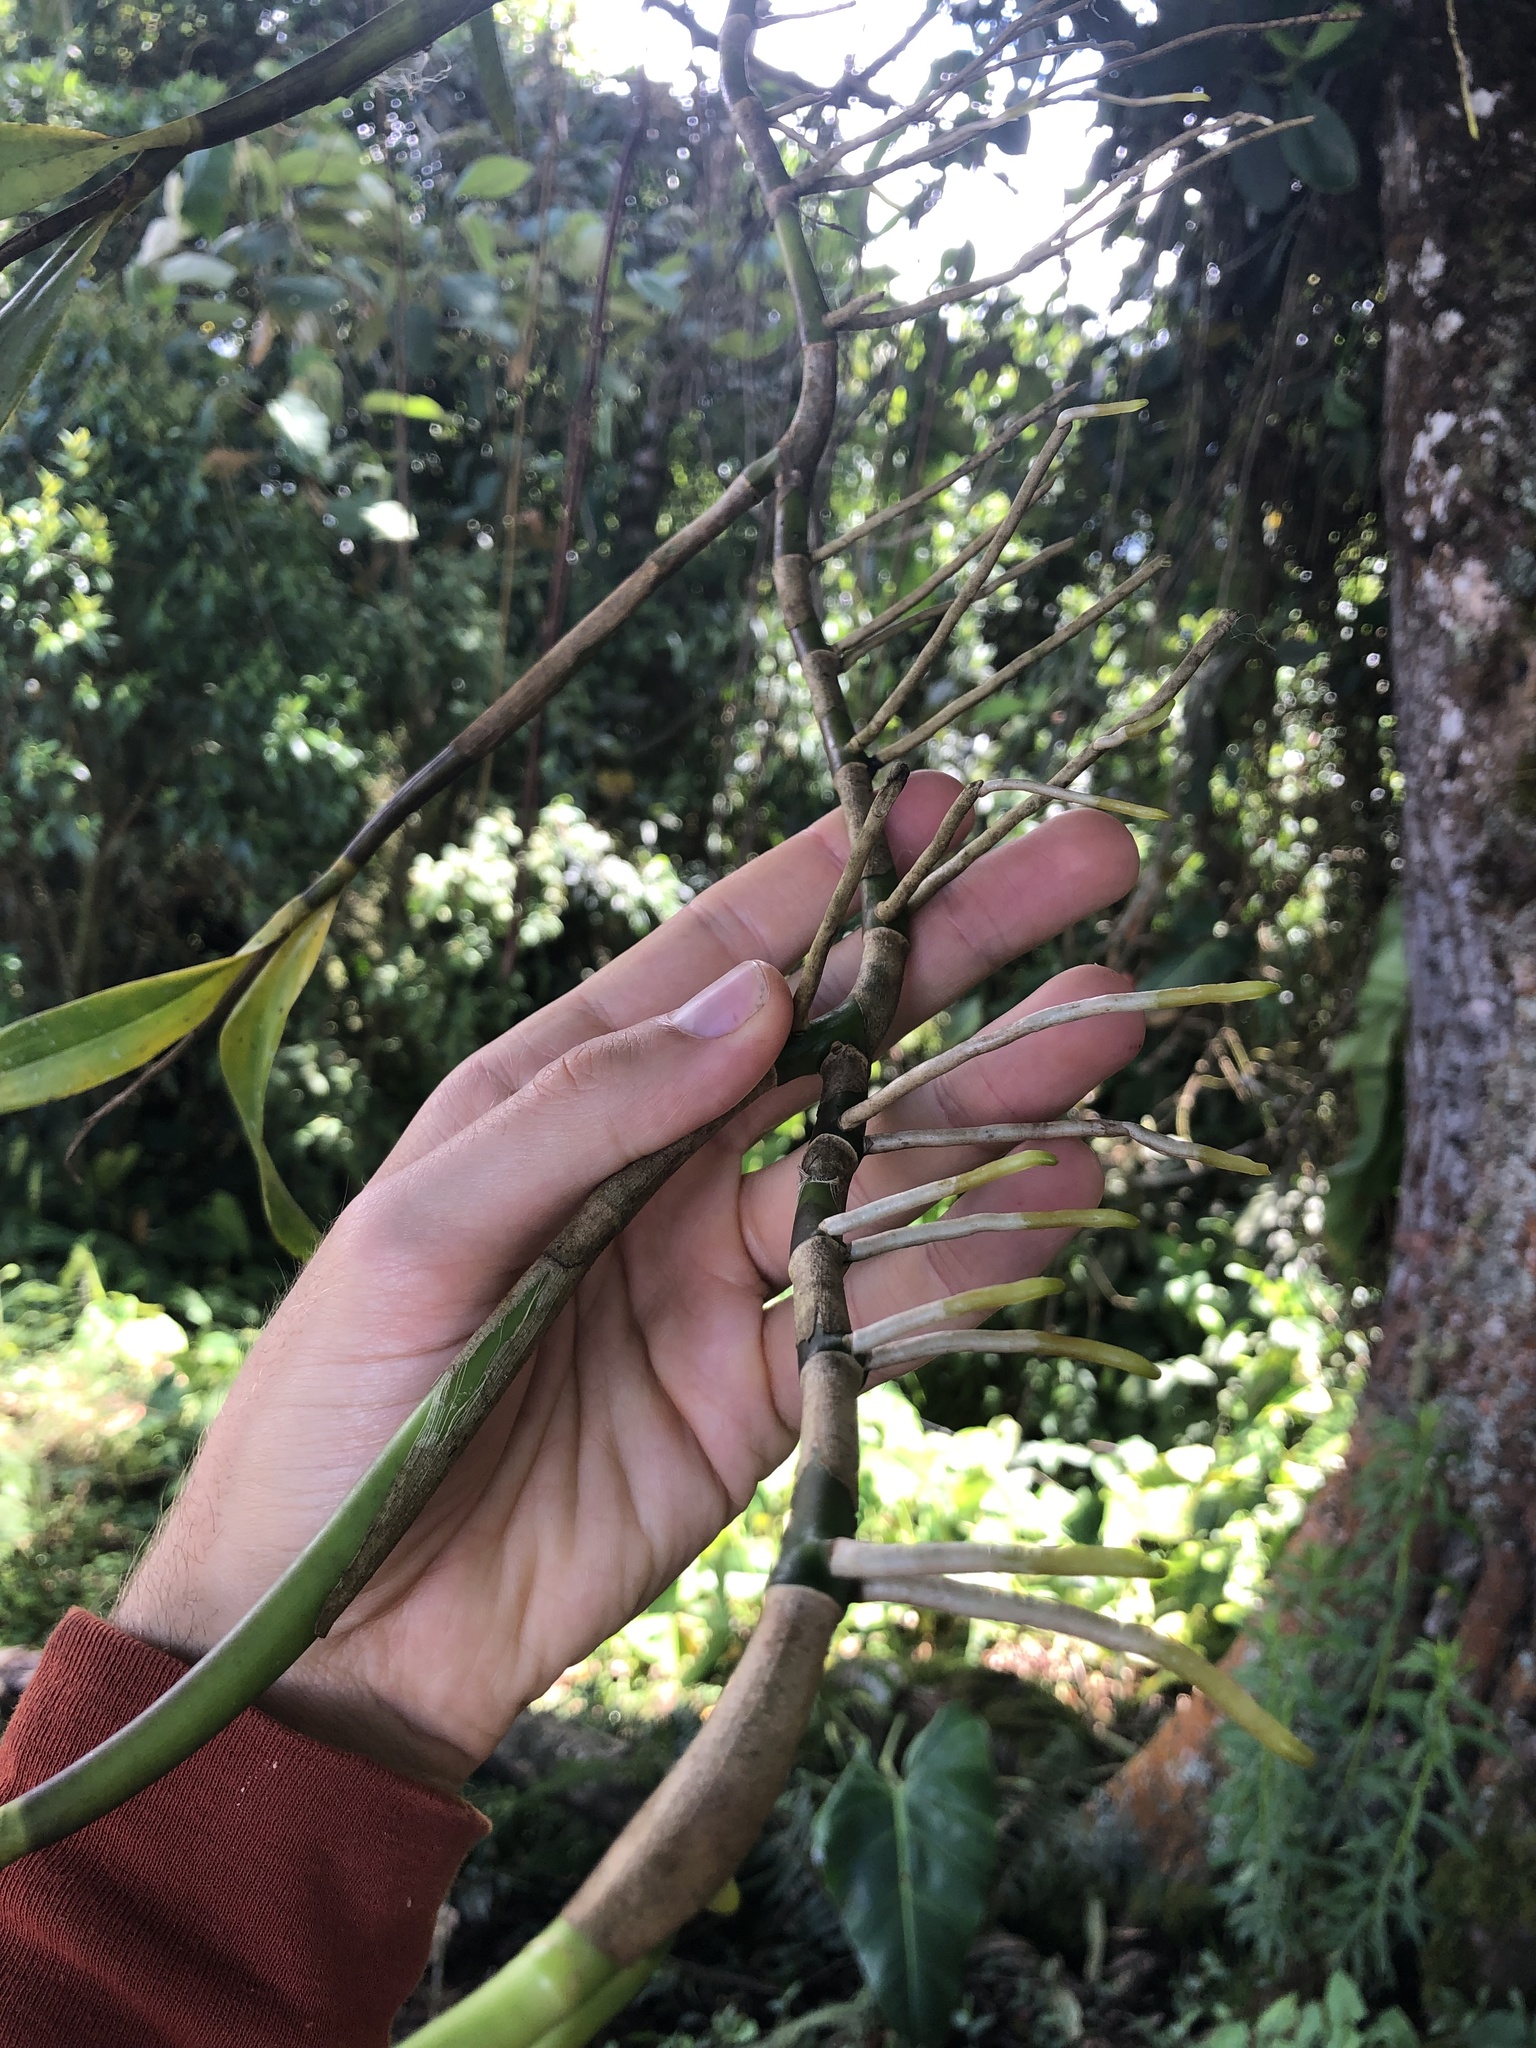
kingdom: Plantae
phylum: Tracheophyta
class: Liliopsida
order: Asparagales
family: Orchidaceae
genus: Prosthechea
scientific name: Prosthechea gilbertoi
